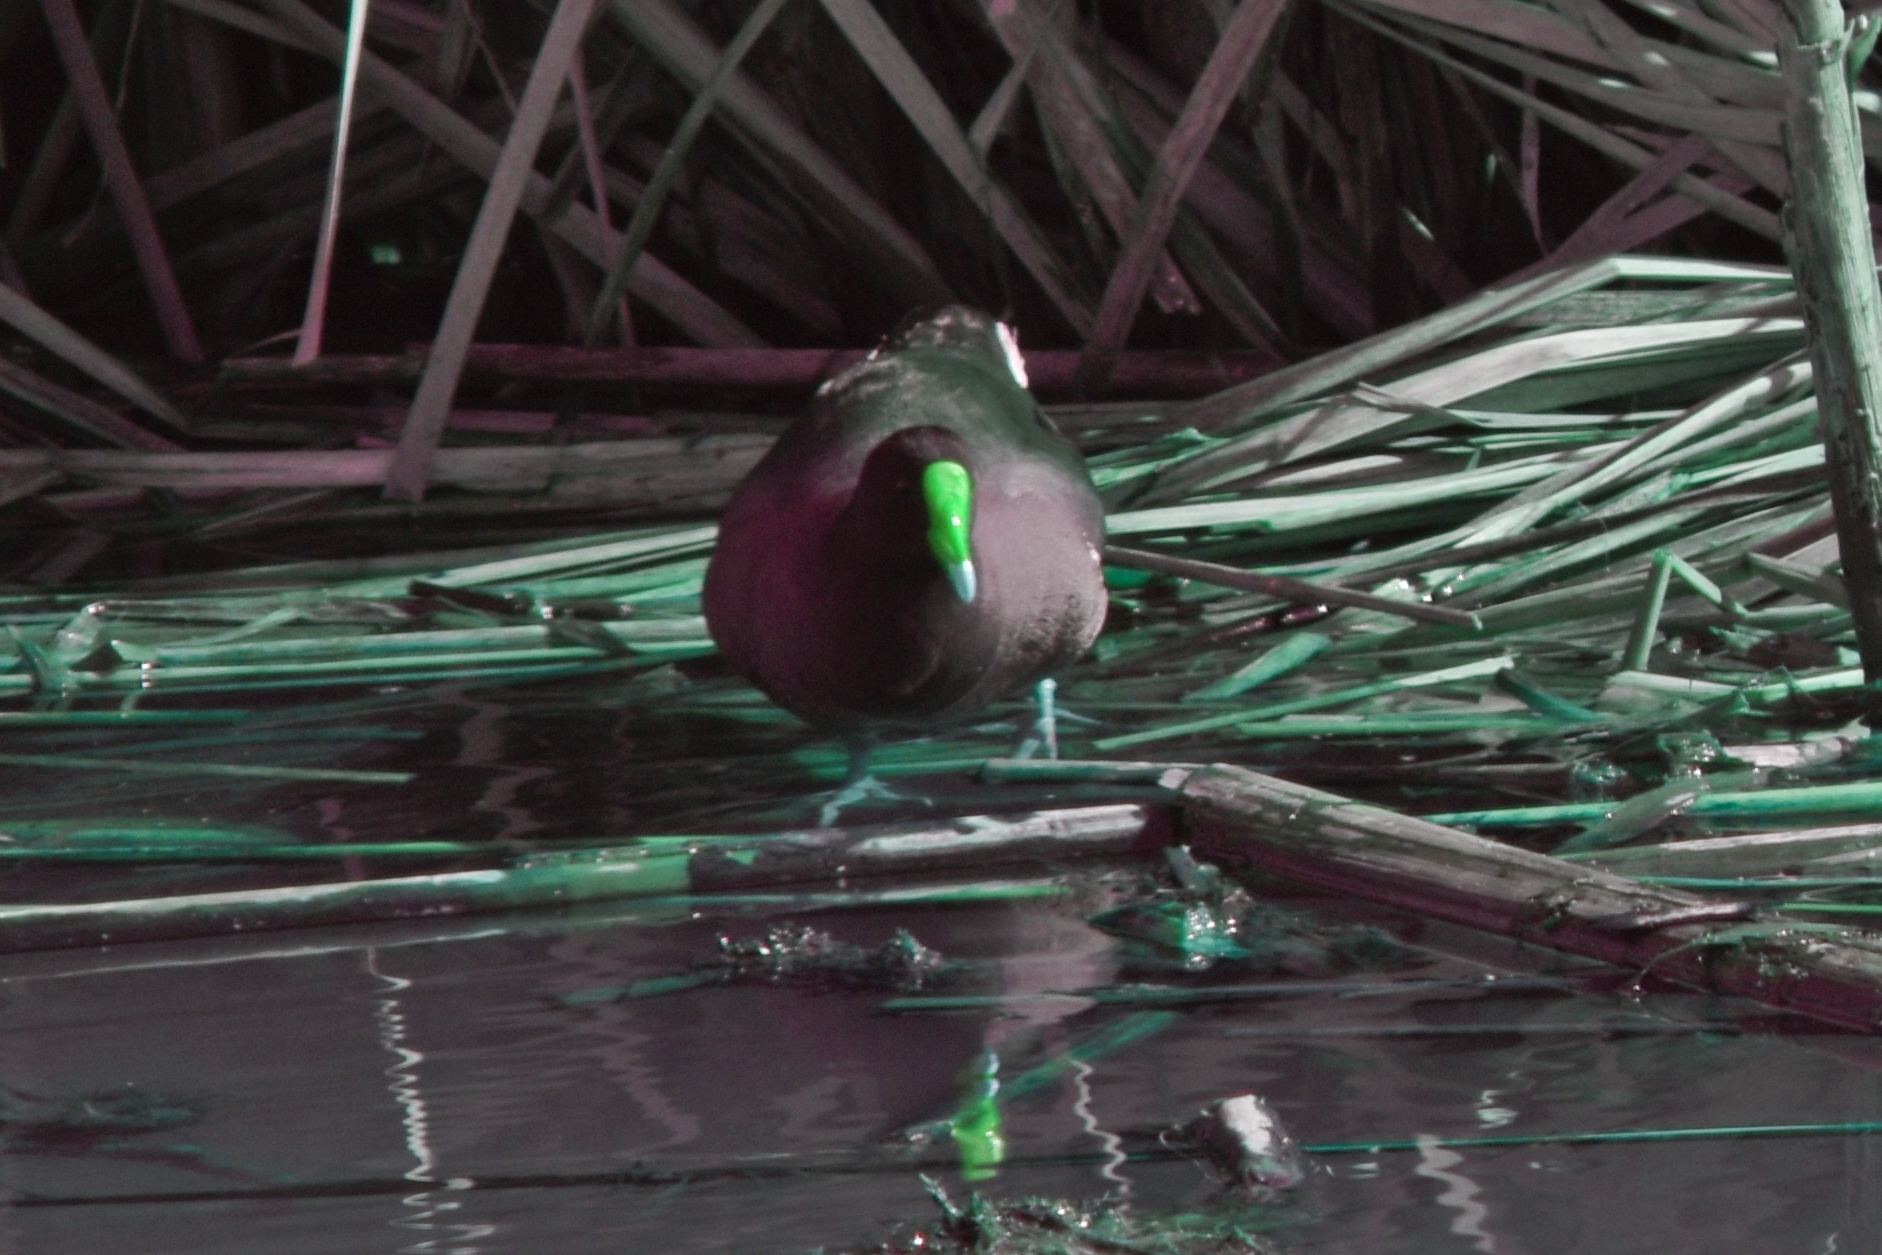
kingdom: Animalia
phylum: Chordata
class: Aves
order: Gruiformes
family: Rallidae
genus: Gallinula
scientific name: Gallinula chloropus
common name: Common moorhen
